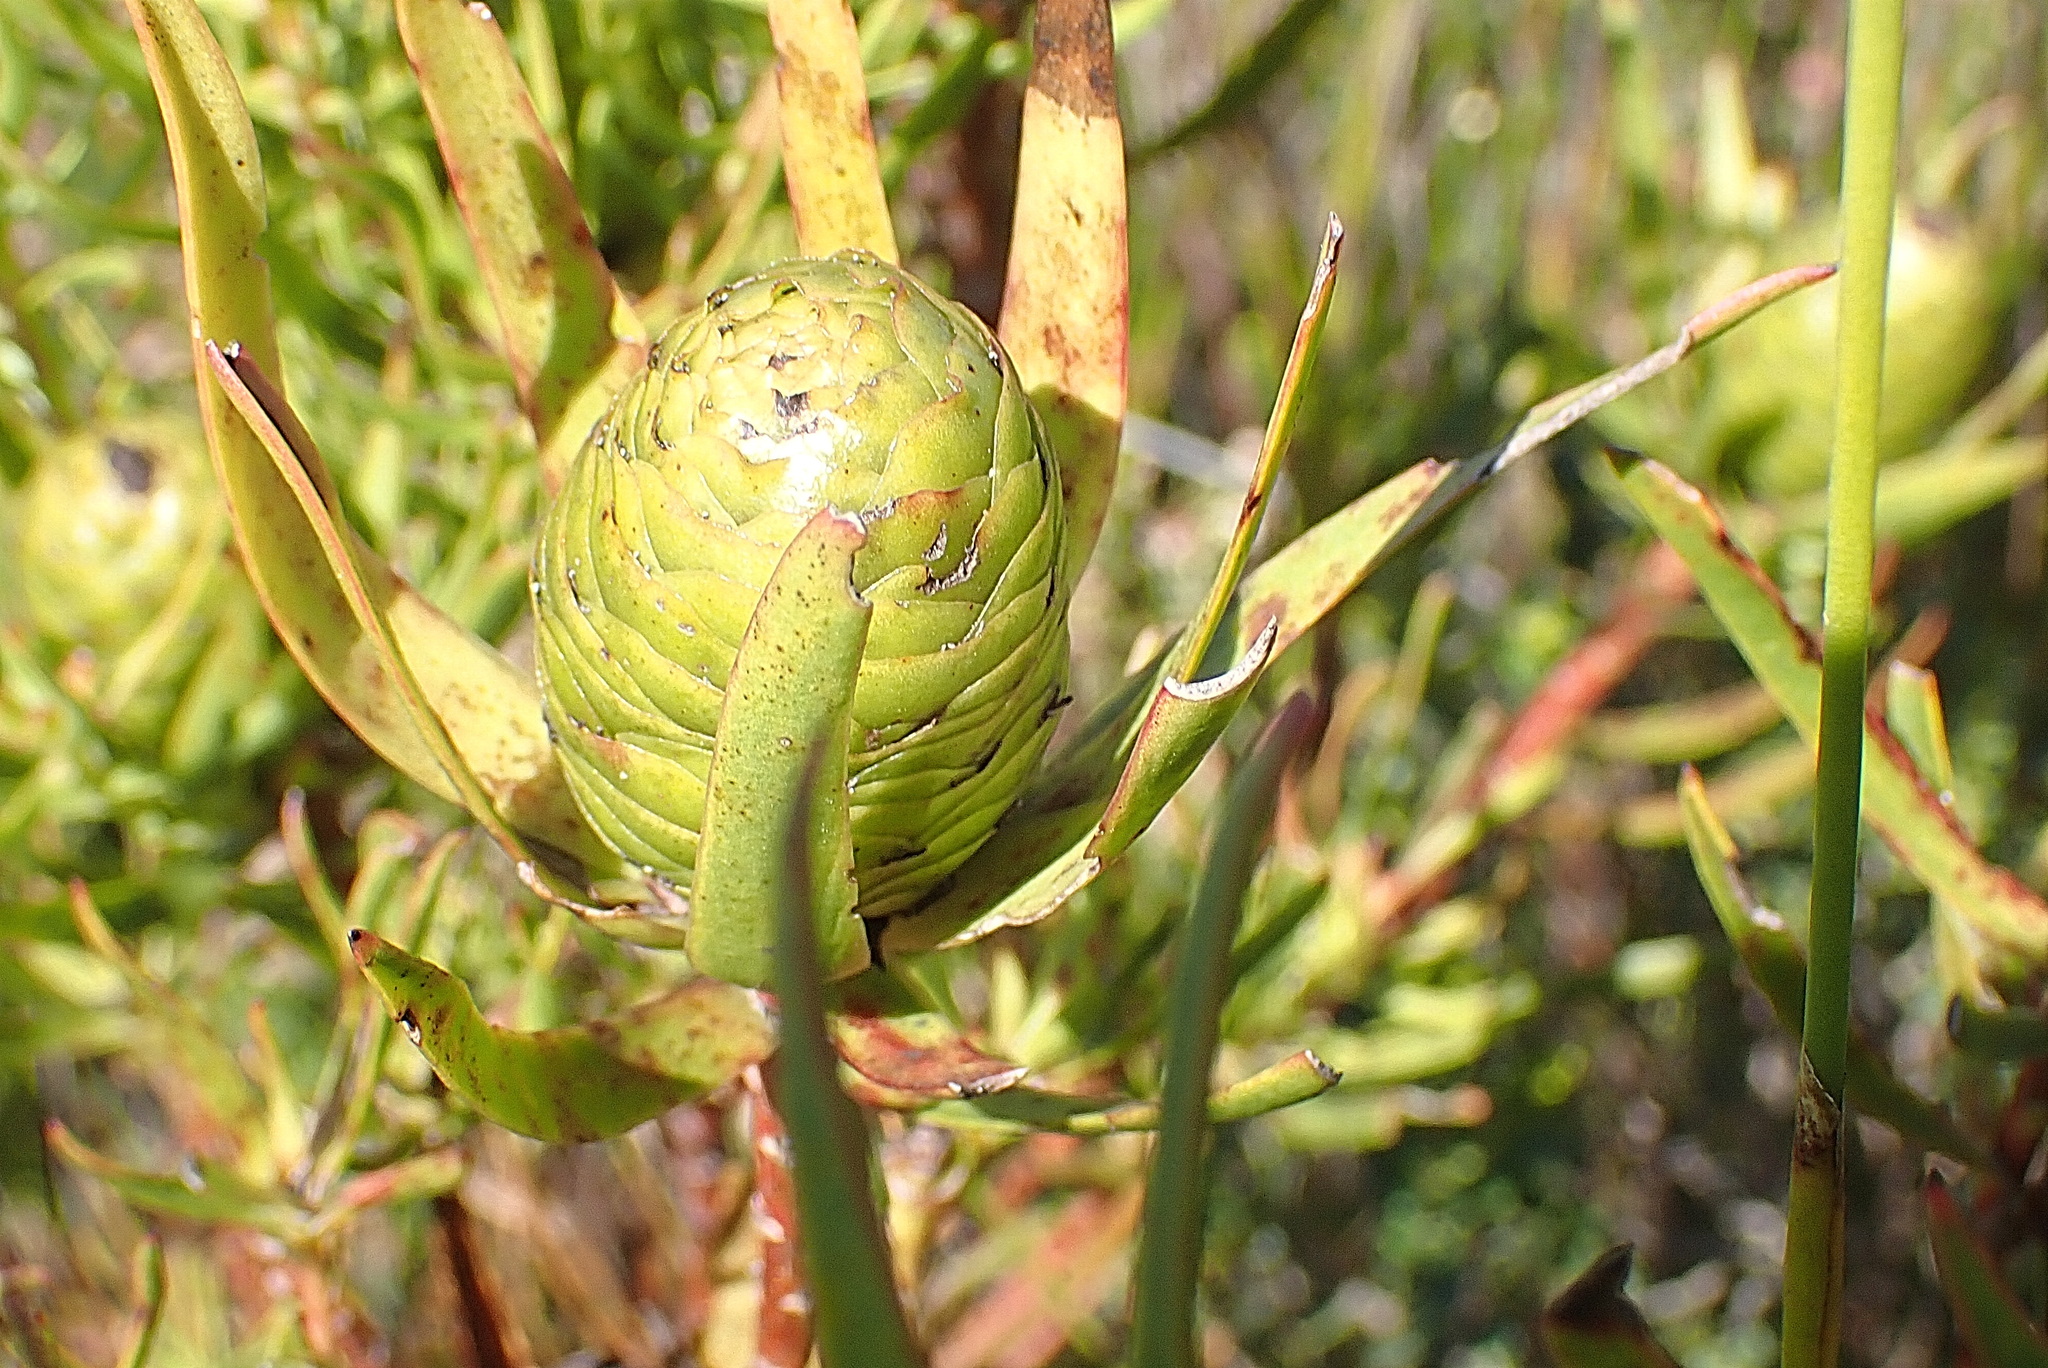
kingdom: Plantae
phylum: Tracheophyta
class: Magnoliopsida
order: Proteales
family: Proteaceae
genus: Leucadendron
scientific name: Leucadendron spissifolium
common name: Spear-leaf conebush
